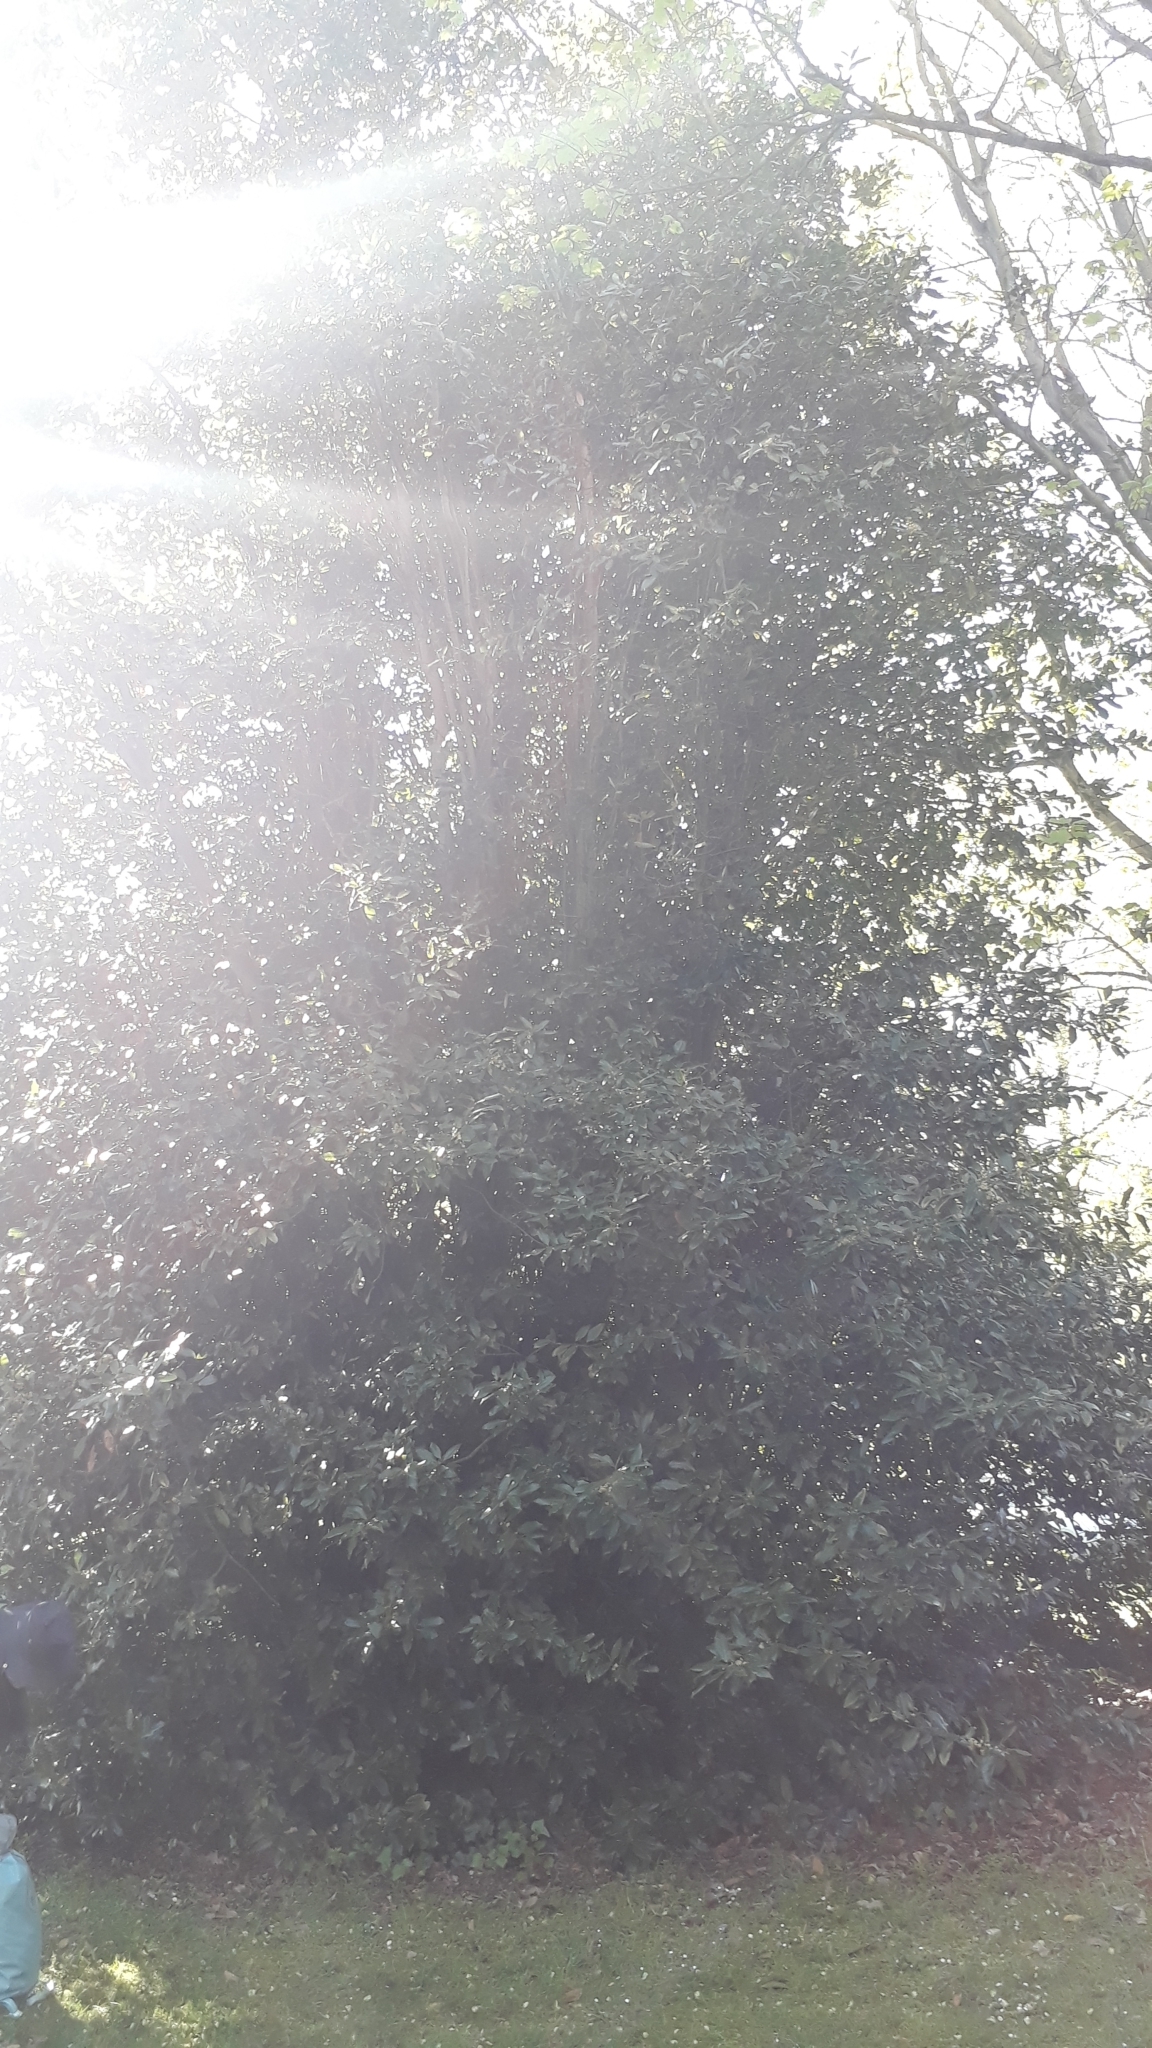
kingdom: Plantae
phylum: Tracheophyta
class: Magnoliopsida
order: Laurales
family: Lauraceae
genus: Laurus
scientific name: Laurus nobilis
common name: Bay
